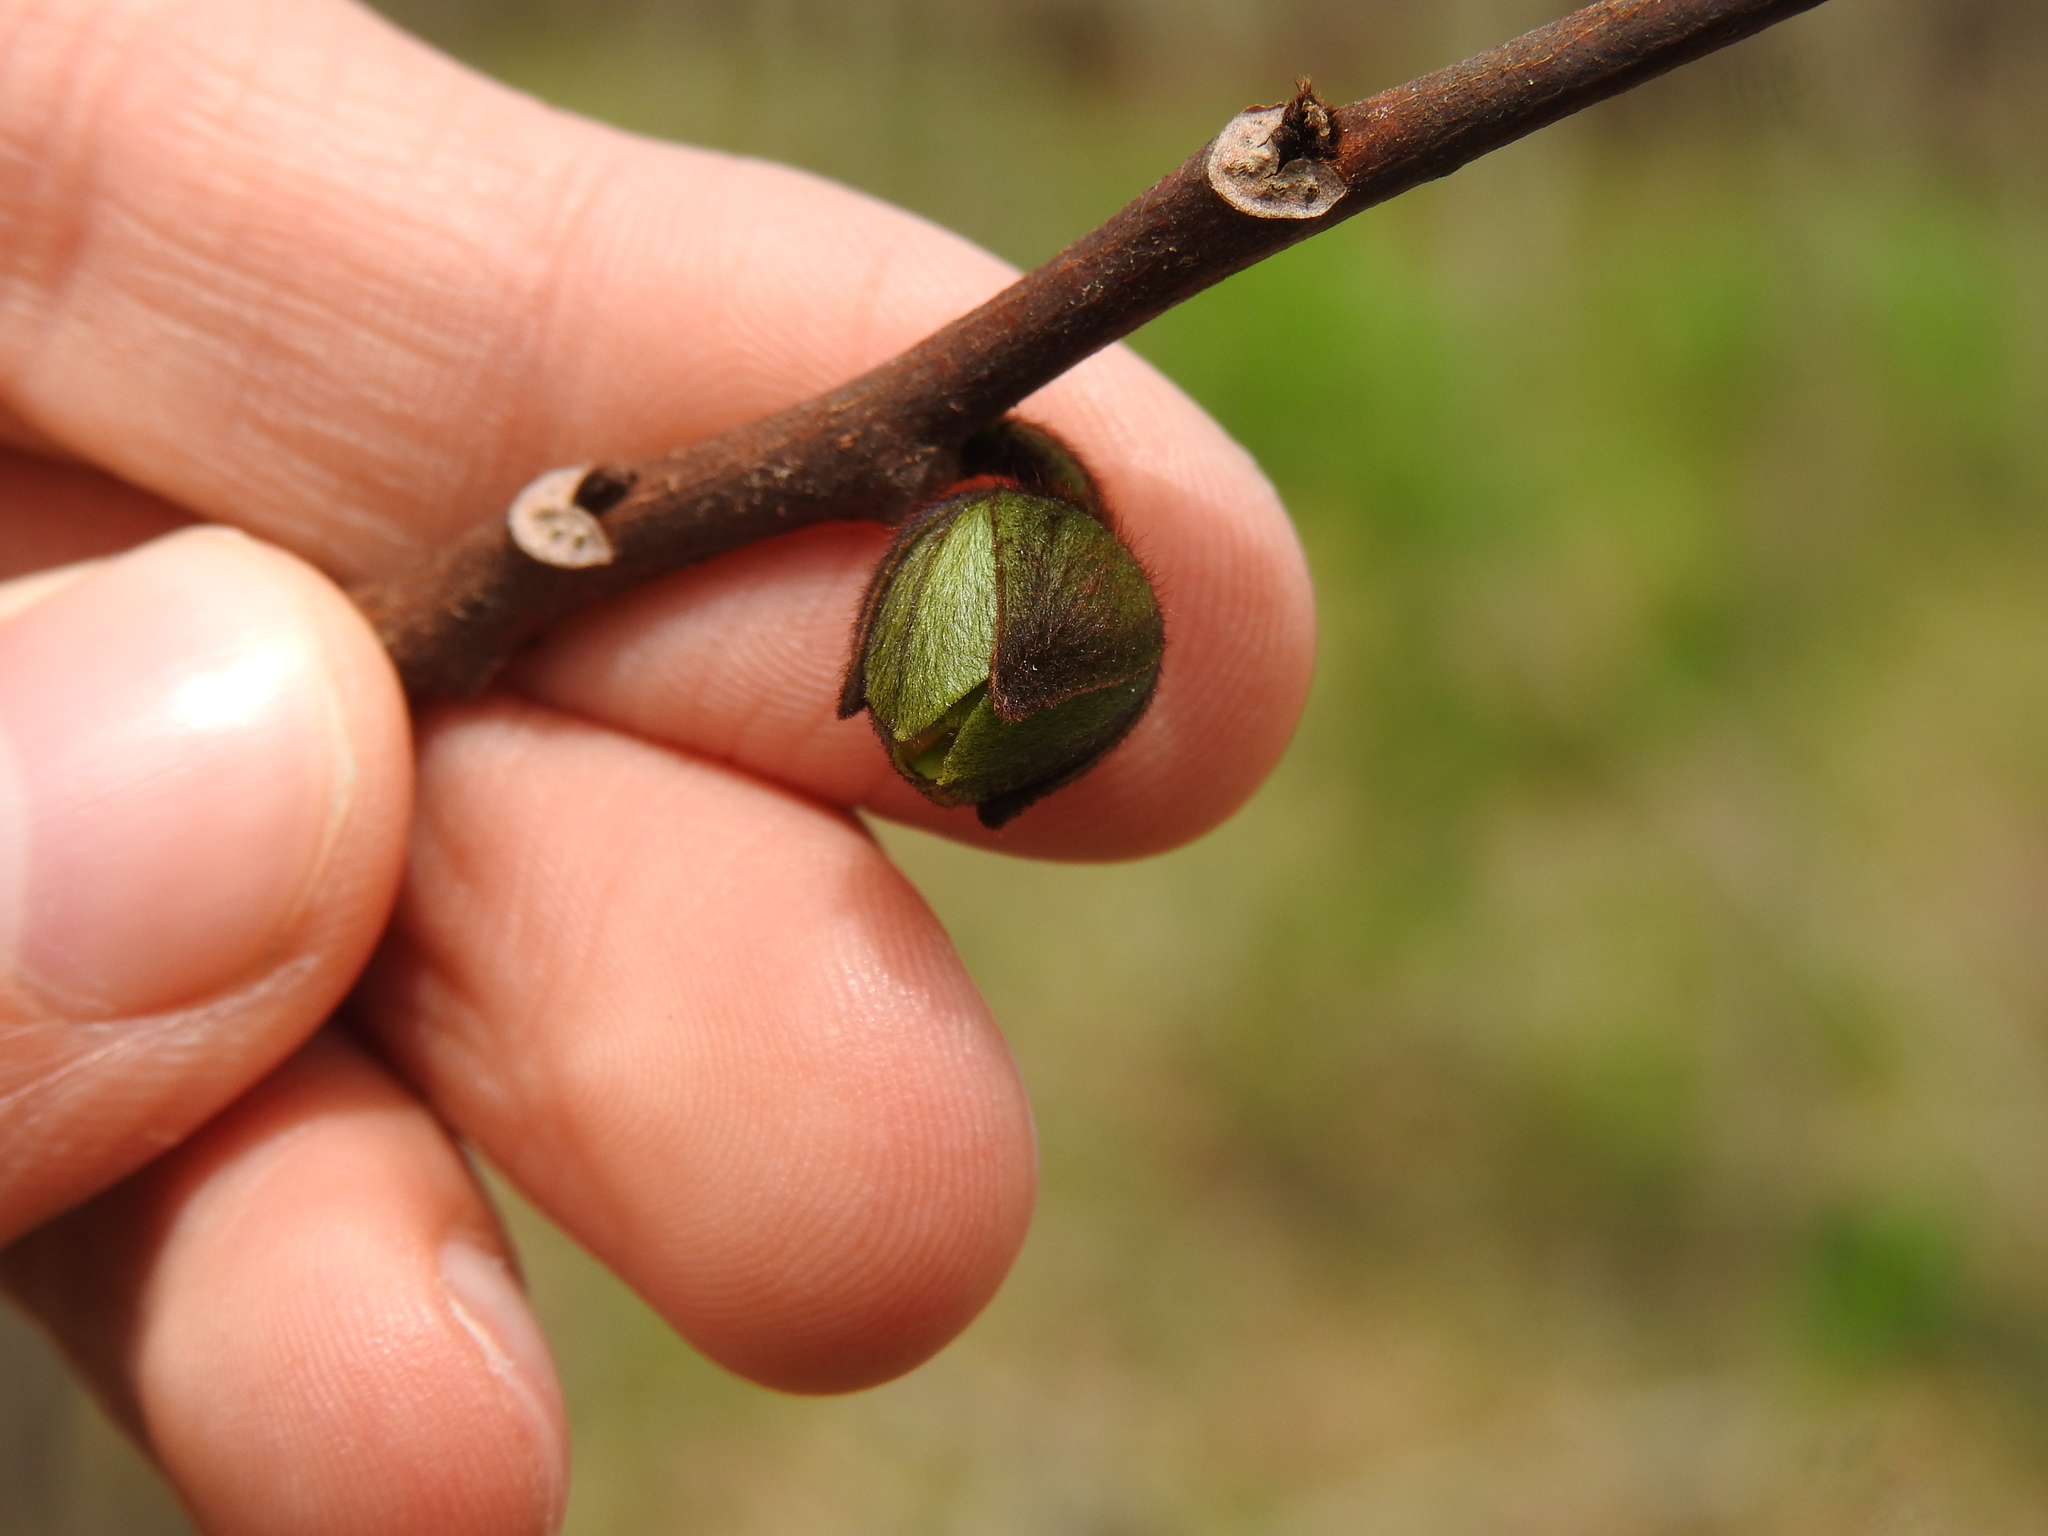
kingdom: Plantae
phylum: Tracheophyta
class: Magnoliopsida
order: Magnoliales
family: Annonaceae
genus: Asimina
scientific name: Asimina triloba
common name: Dog-banana
